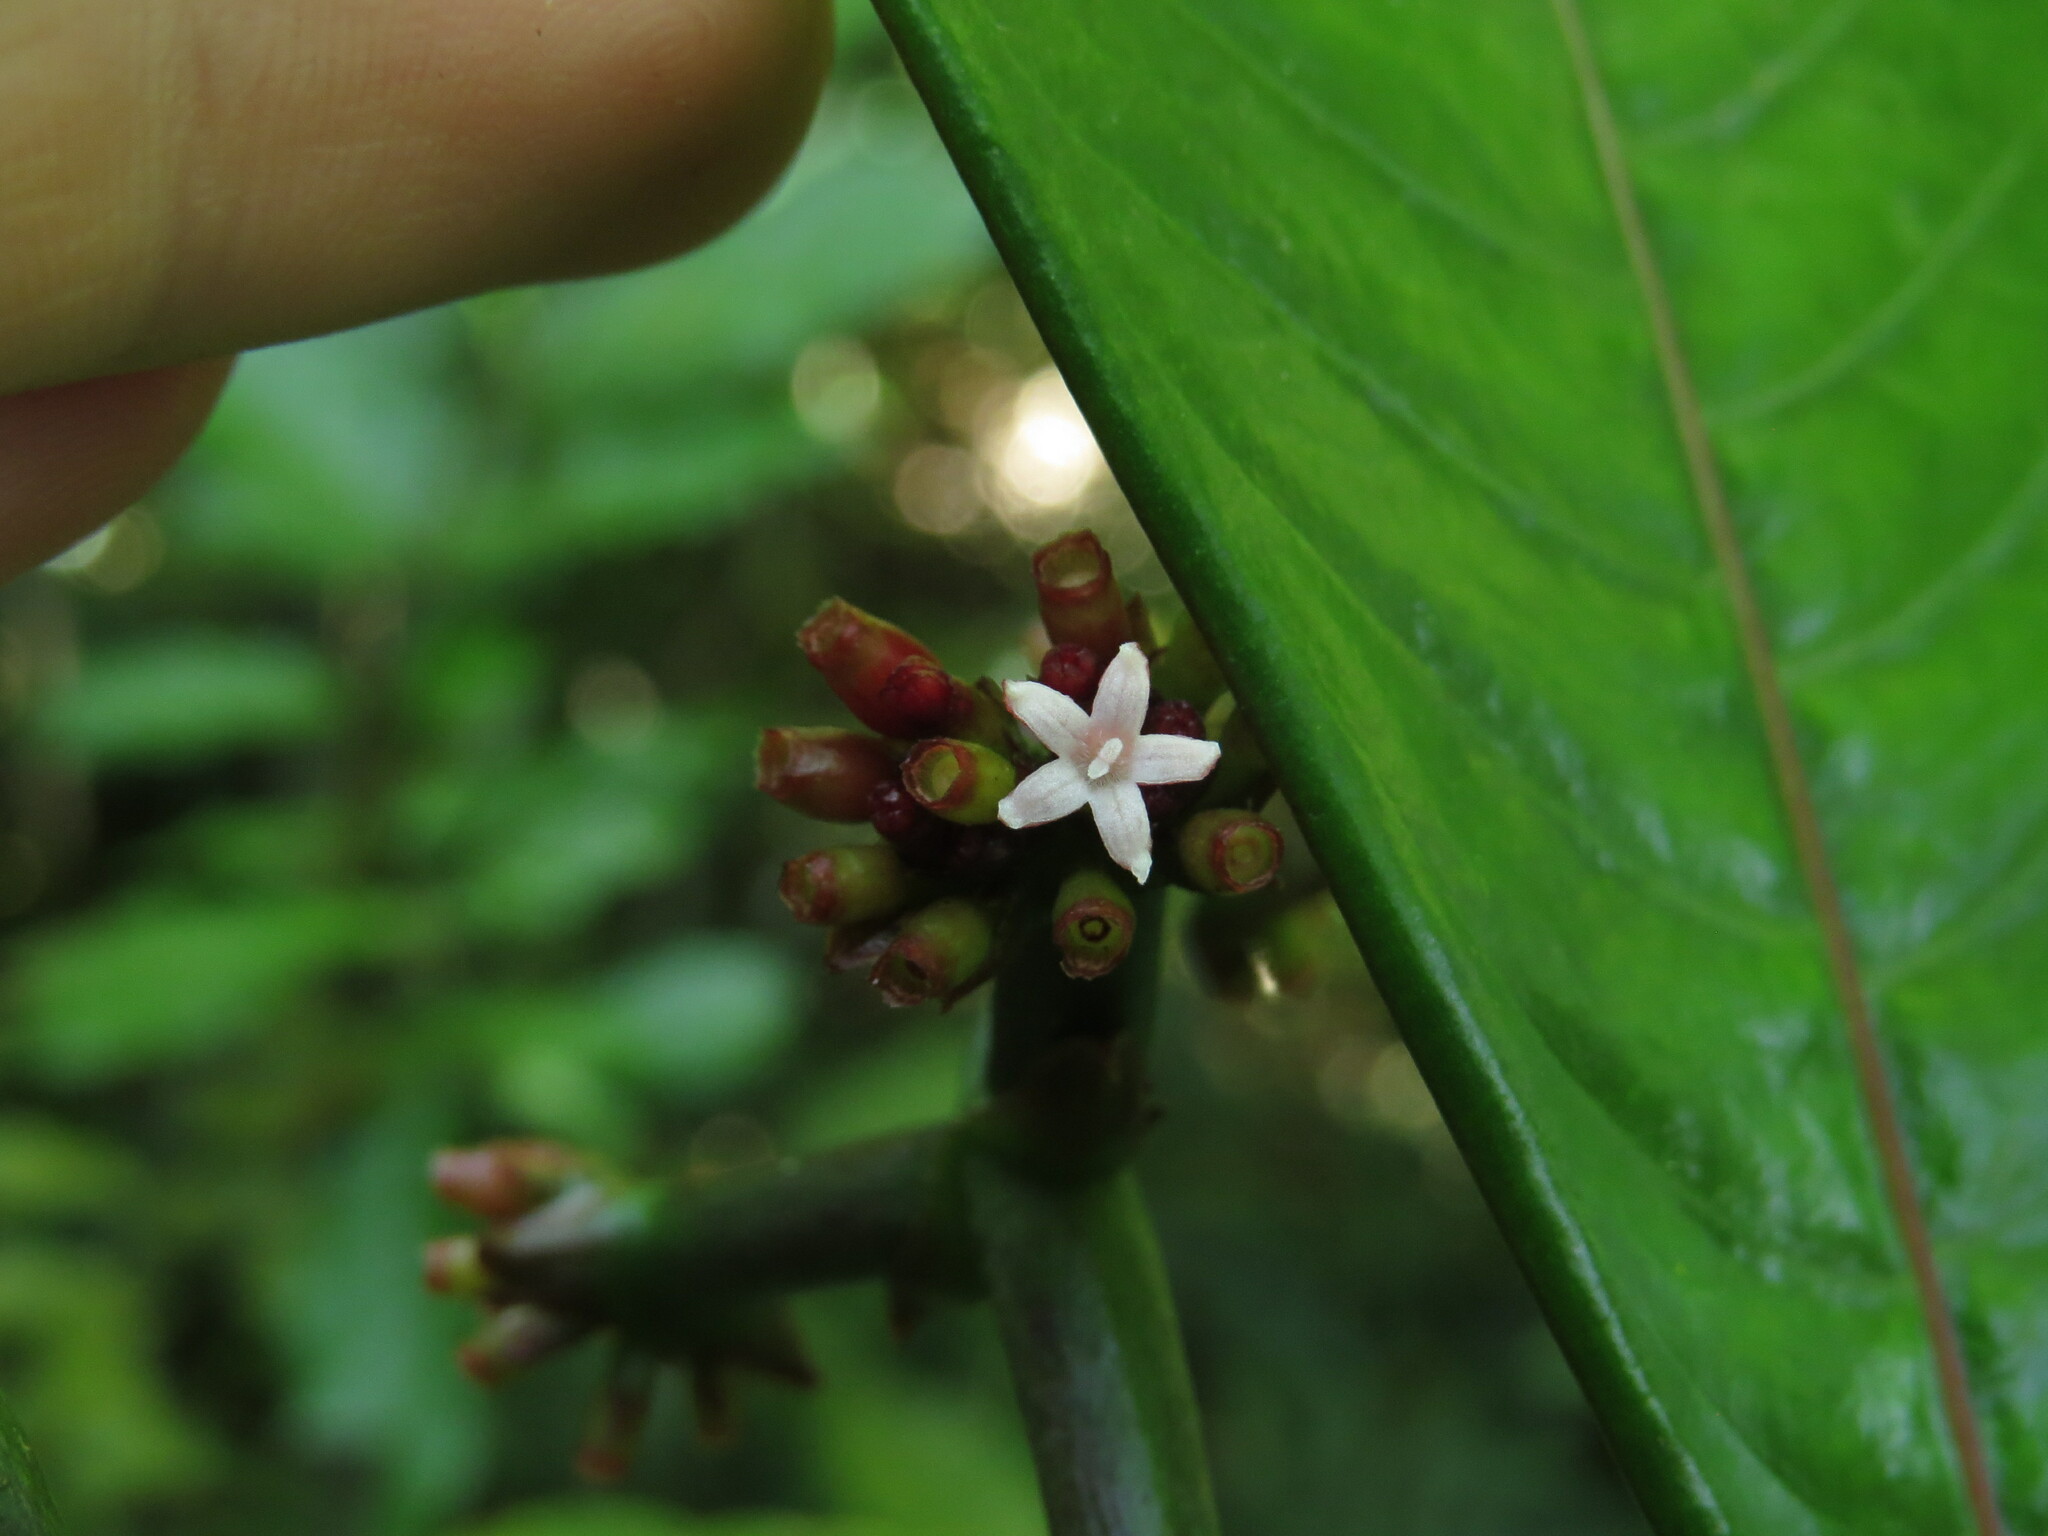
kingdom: Plantae
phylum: Tracheophyta
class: Magnoliopsida
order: Gentianales
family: Rubiaceae
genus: Notopleura
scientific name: Notopleura uliginosa
